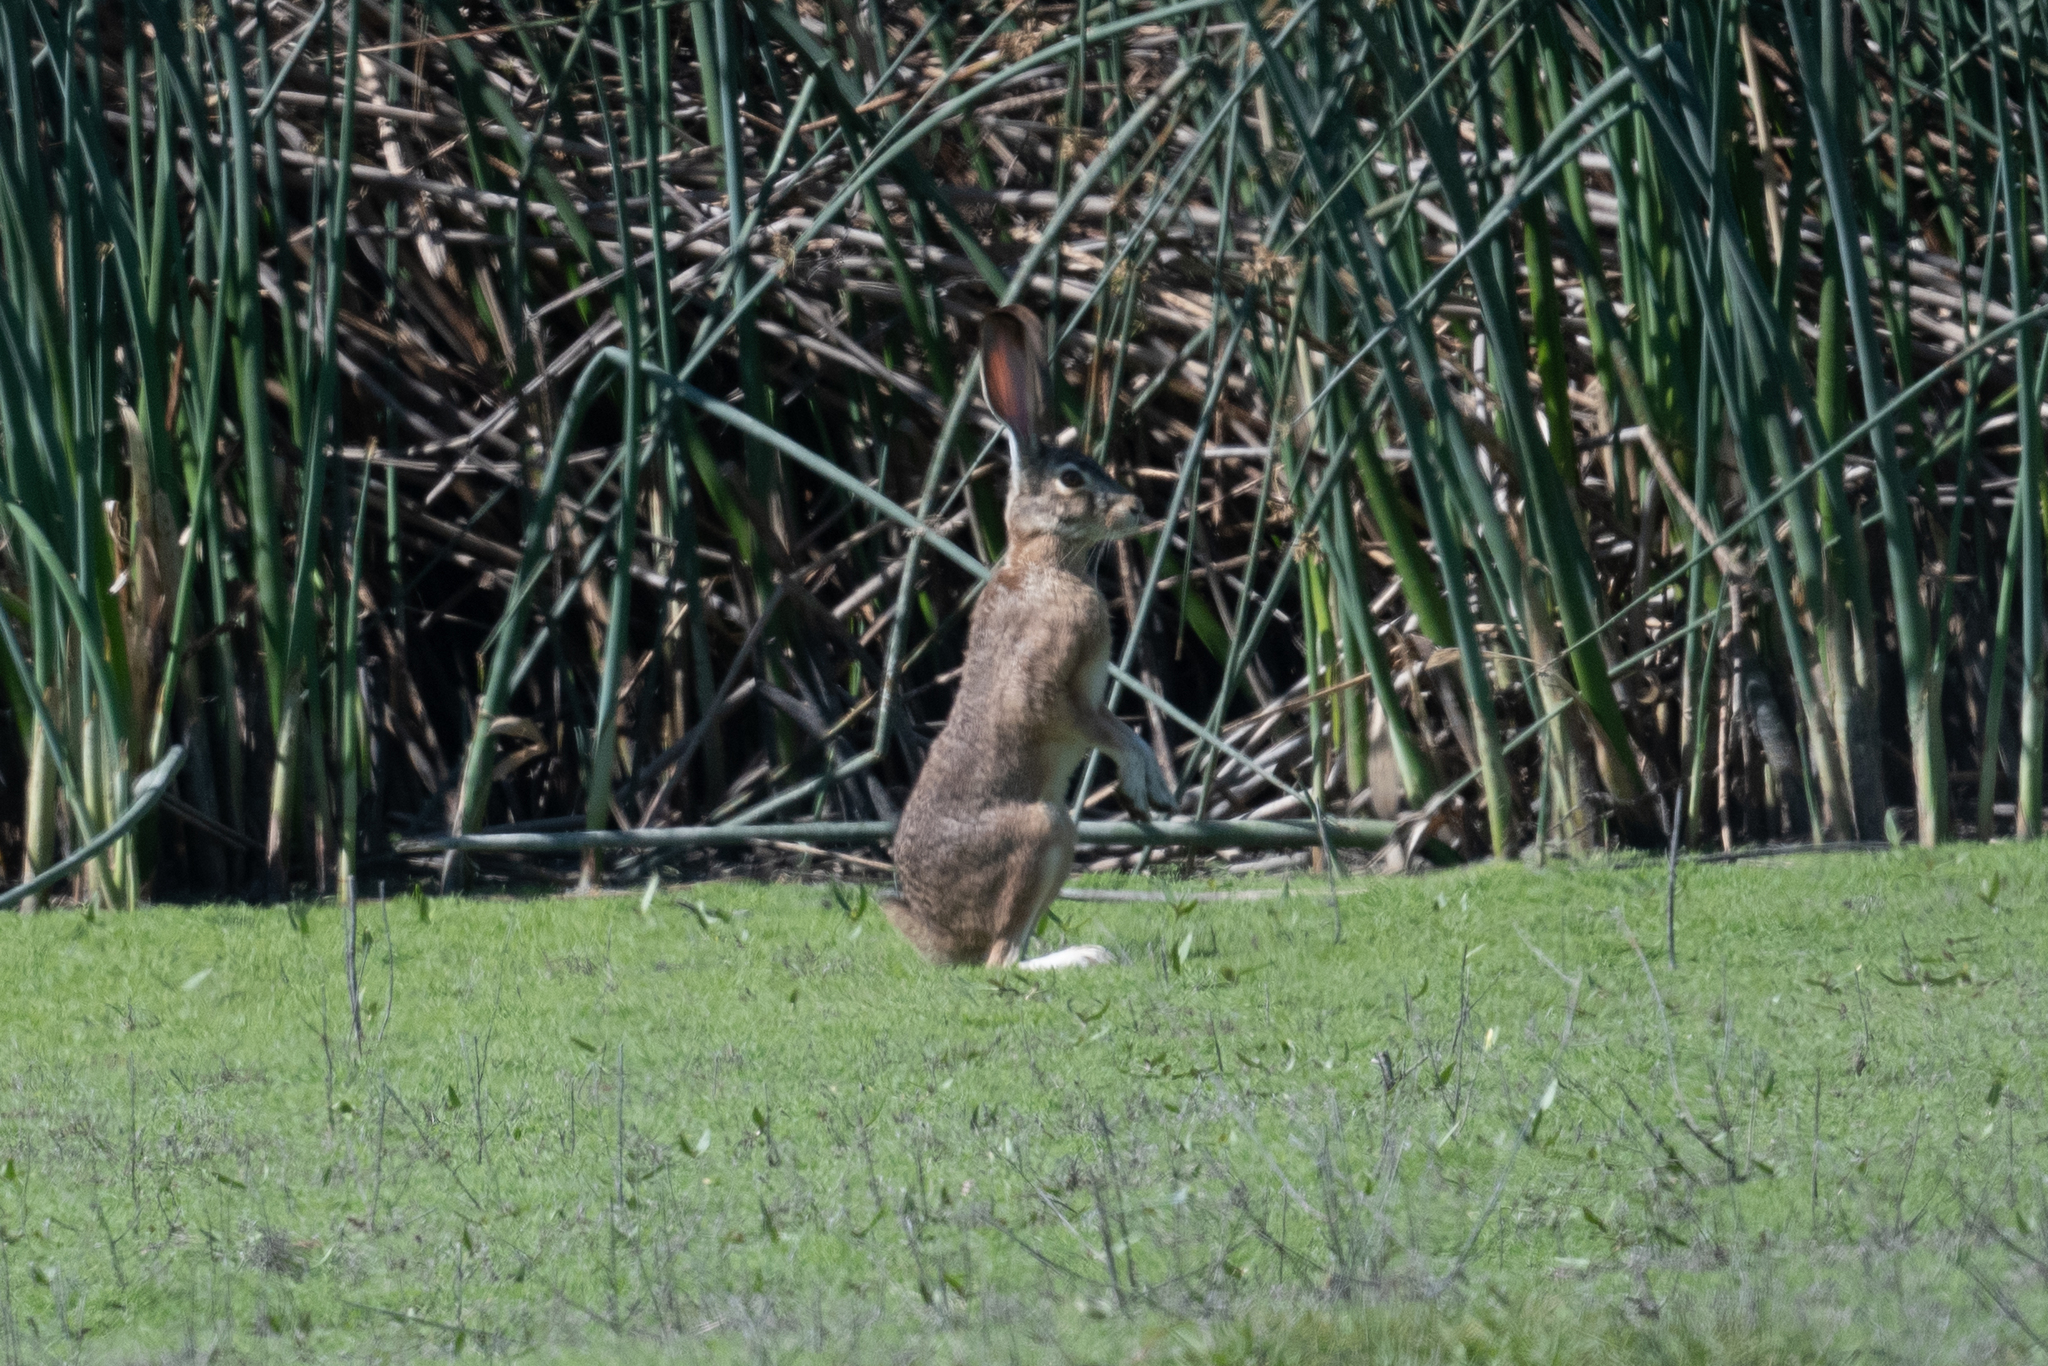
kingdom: Animalia
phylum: Chordata
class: Mammalia
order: Lagomorpha
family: Leporidae
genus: Lepus
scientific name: Lepus californicus
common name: Black-tailed jackrabbit
